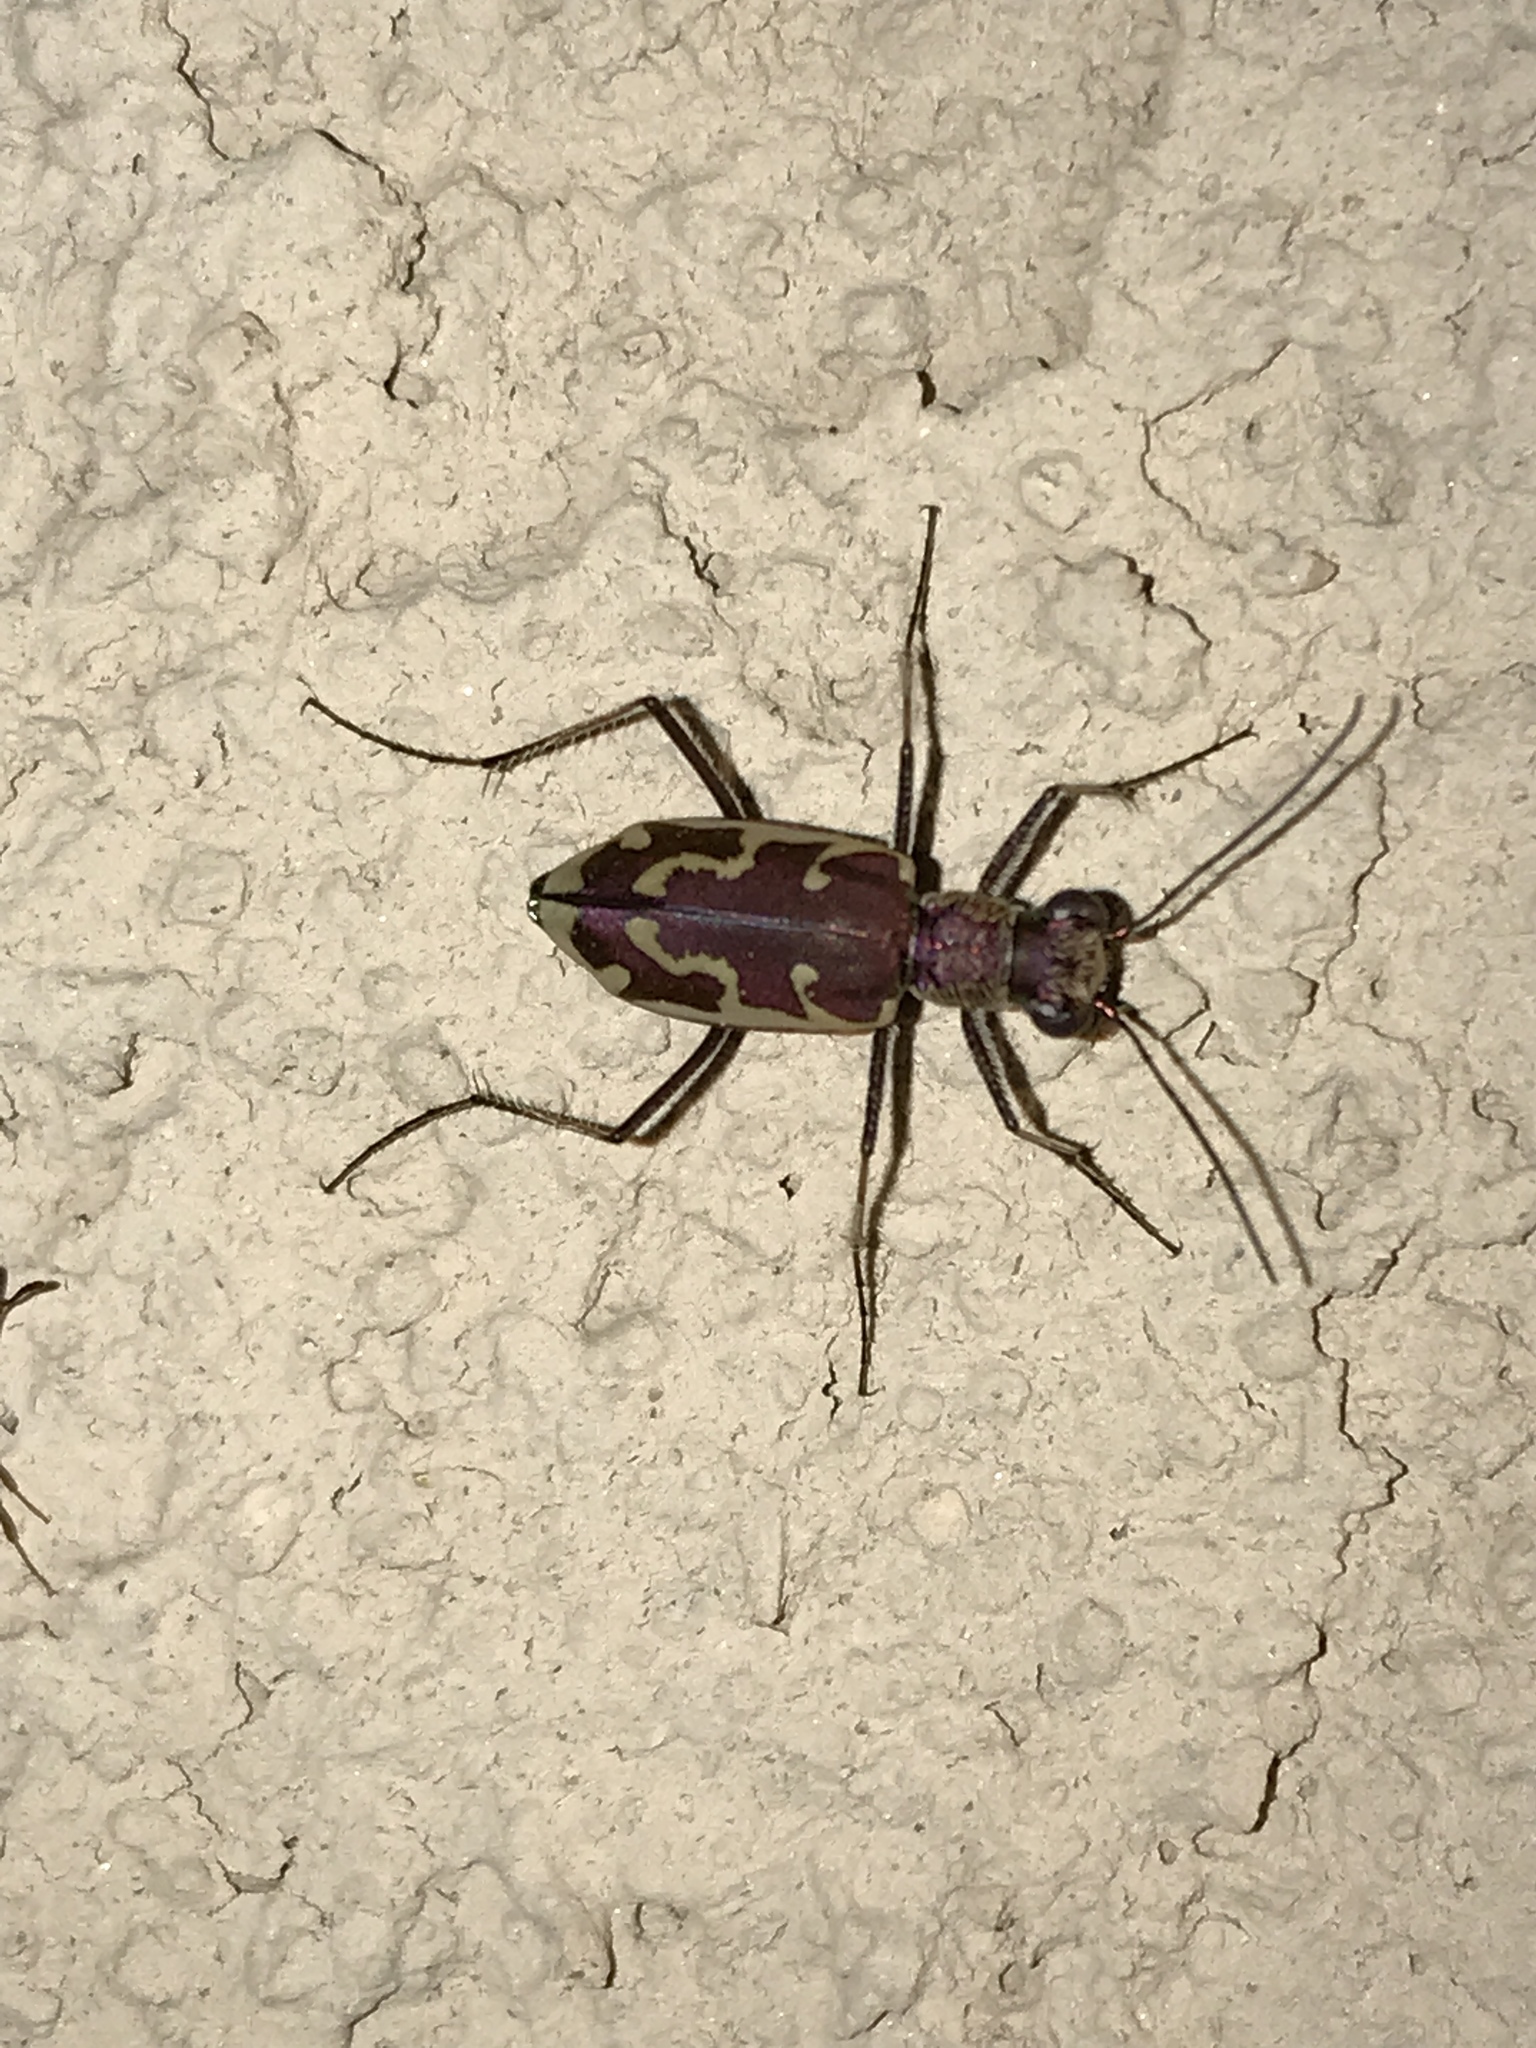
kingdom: Animalia
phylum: Arthropoda
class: Insecta
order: Coleoptera
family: Carabidae
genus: Ellipsoptera
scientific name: Ellipsoptera rubicunda
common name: Aridland tiger beetle
